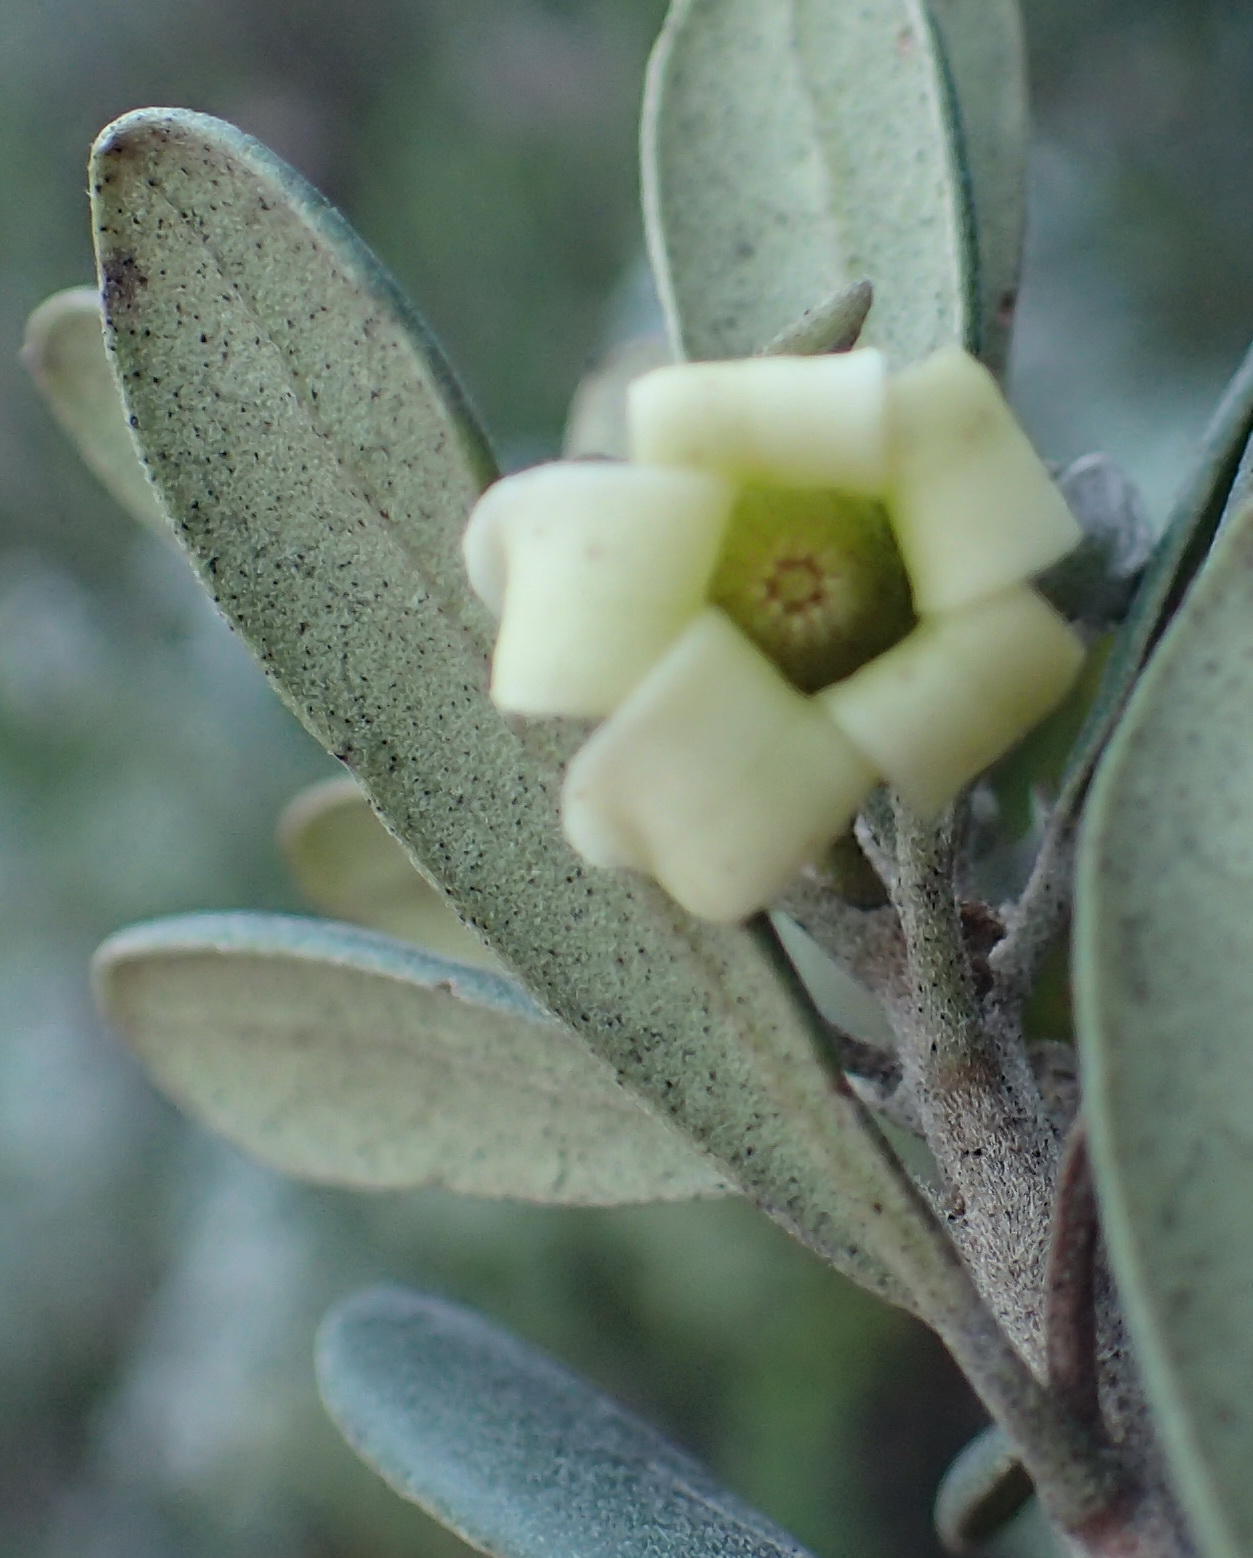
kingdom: Plantae
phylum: Tracheophyta
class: Magnoliopsida
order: Ericales
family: Ebenaceae
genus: Diospyros
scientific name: Diospyros dichrophylla
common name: Common star-apple
